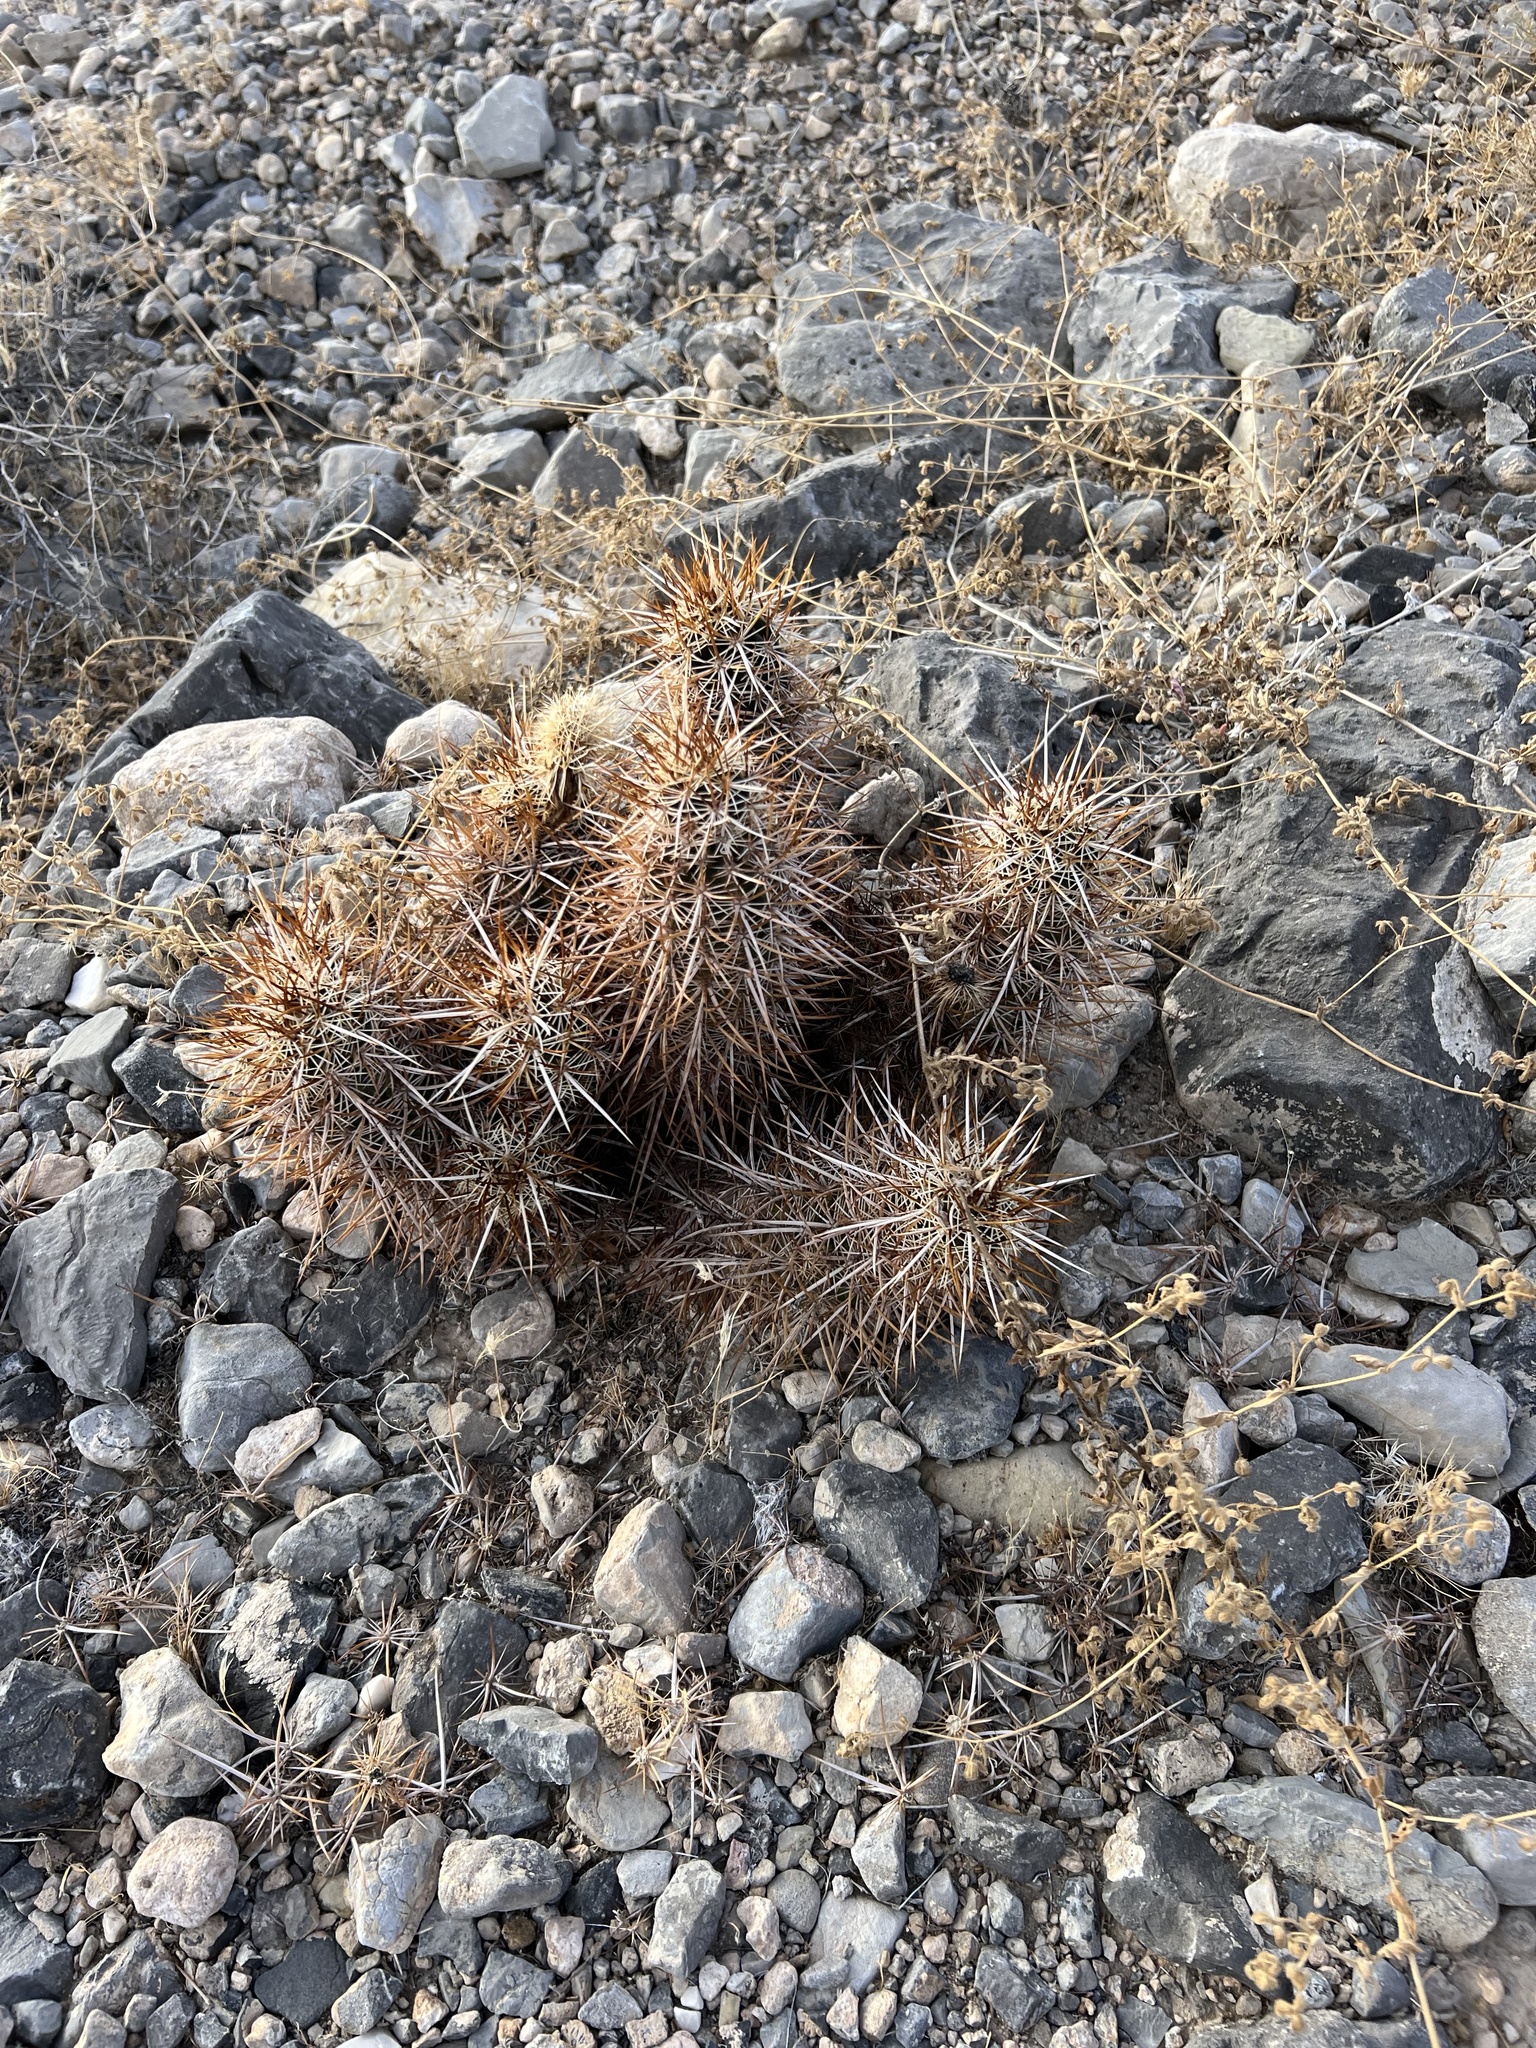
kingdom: Plantae
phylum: Tracheophyta
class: Magnoliopsida
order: Caryophyllales
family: Cactaceae
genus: Echinocereus
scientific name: Echinocereus engelmannii
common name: Engelmann's hedgehog cactus
